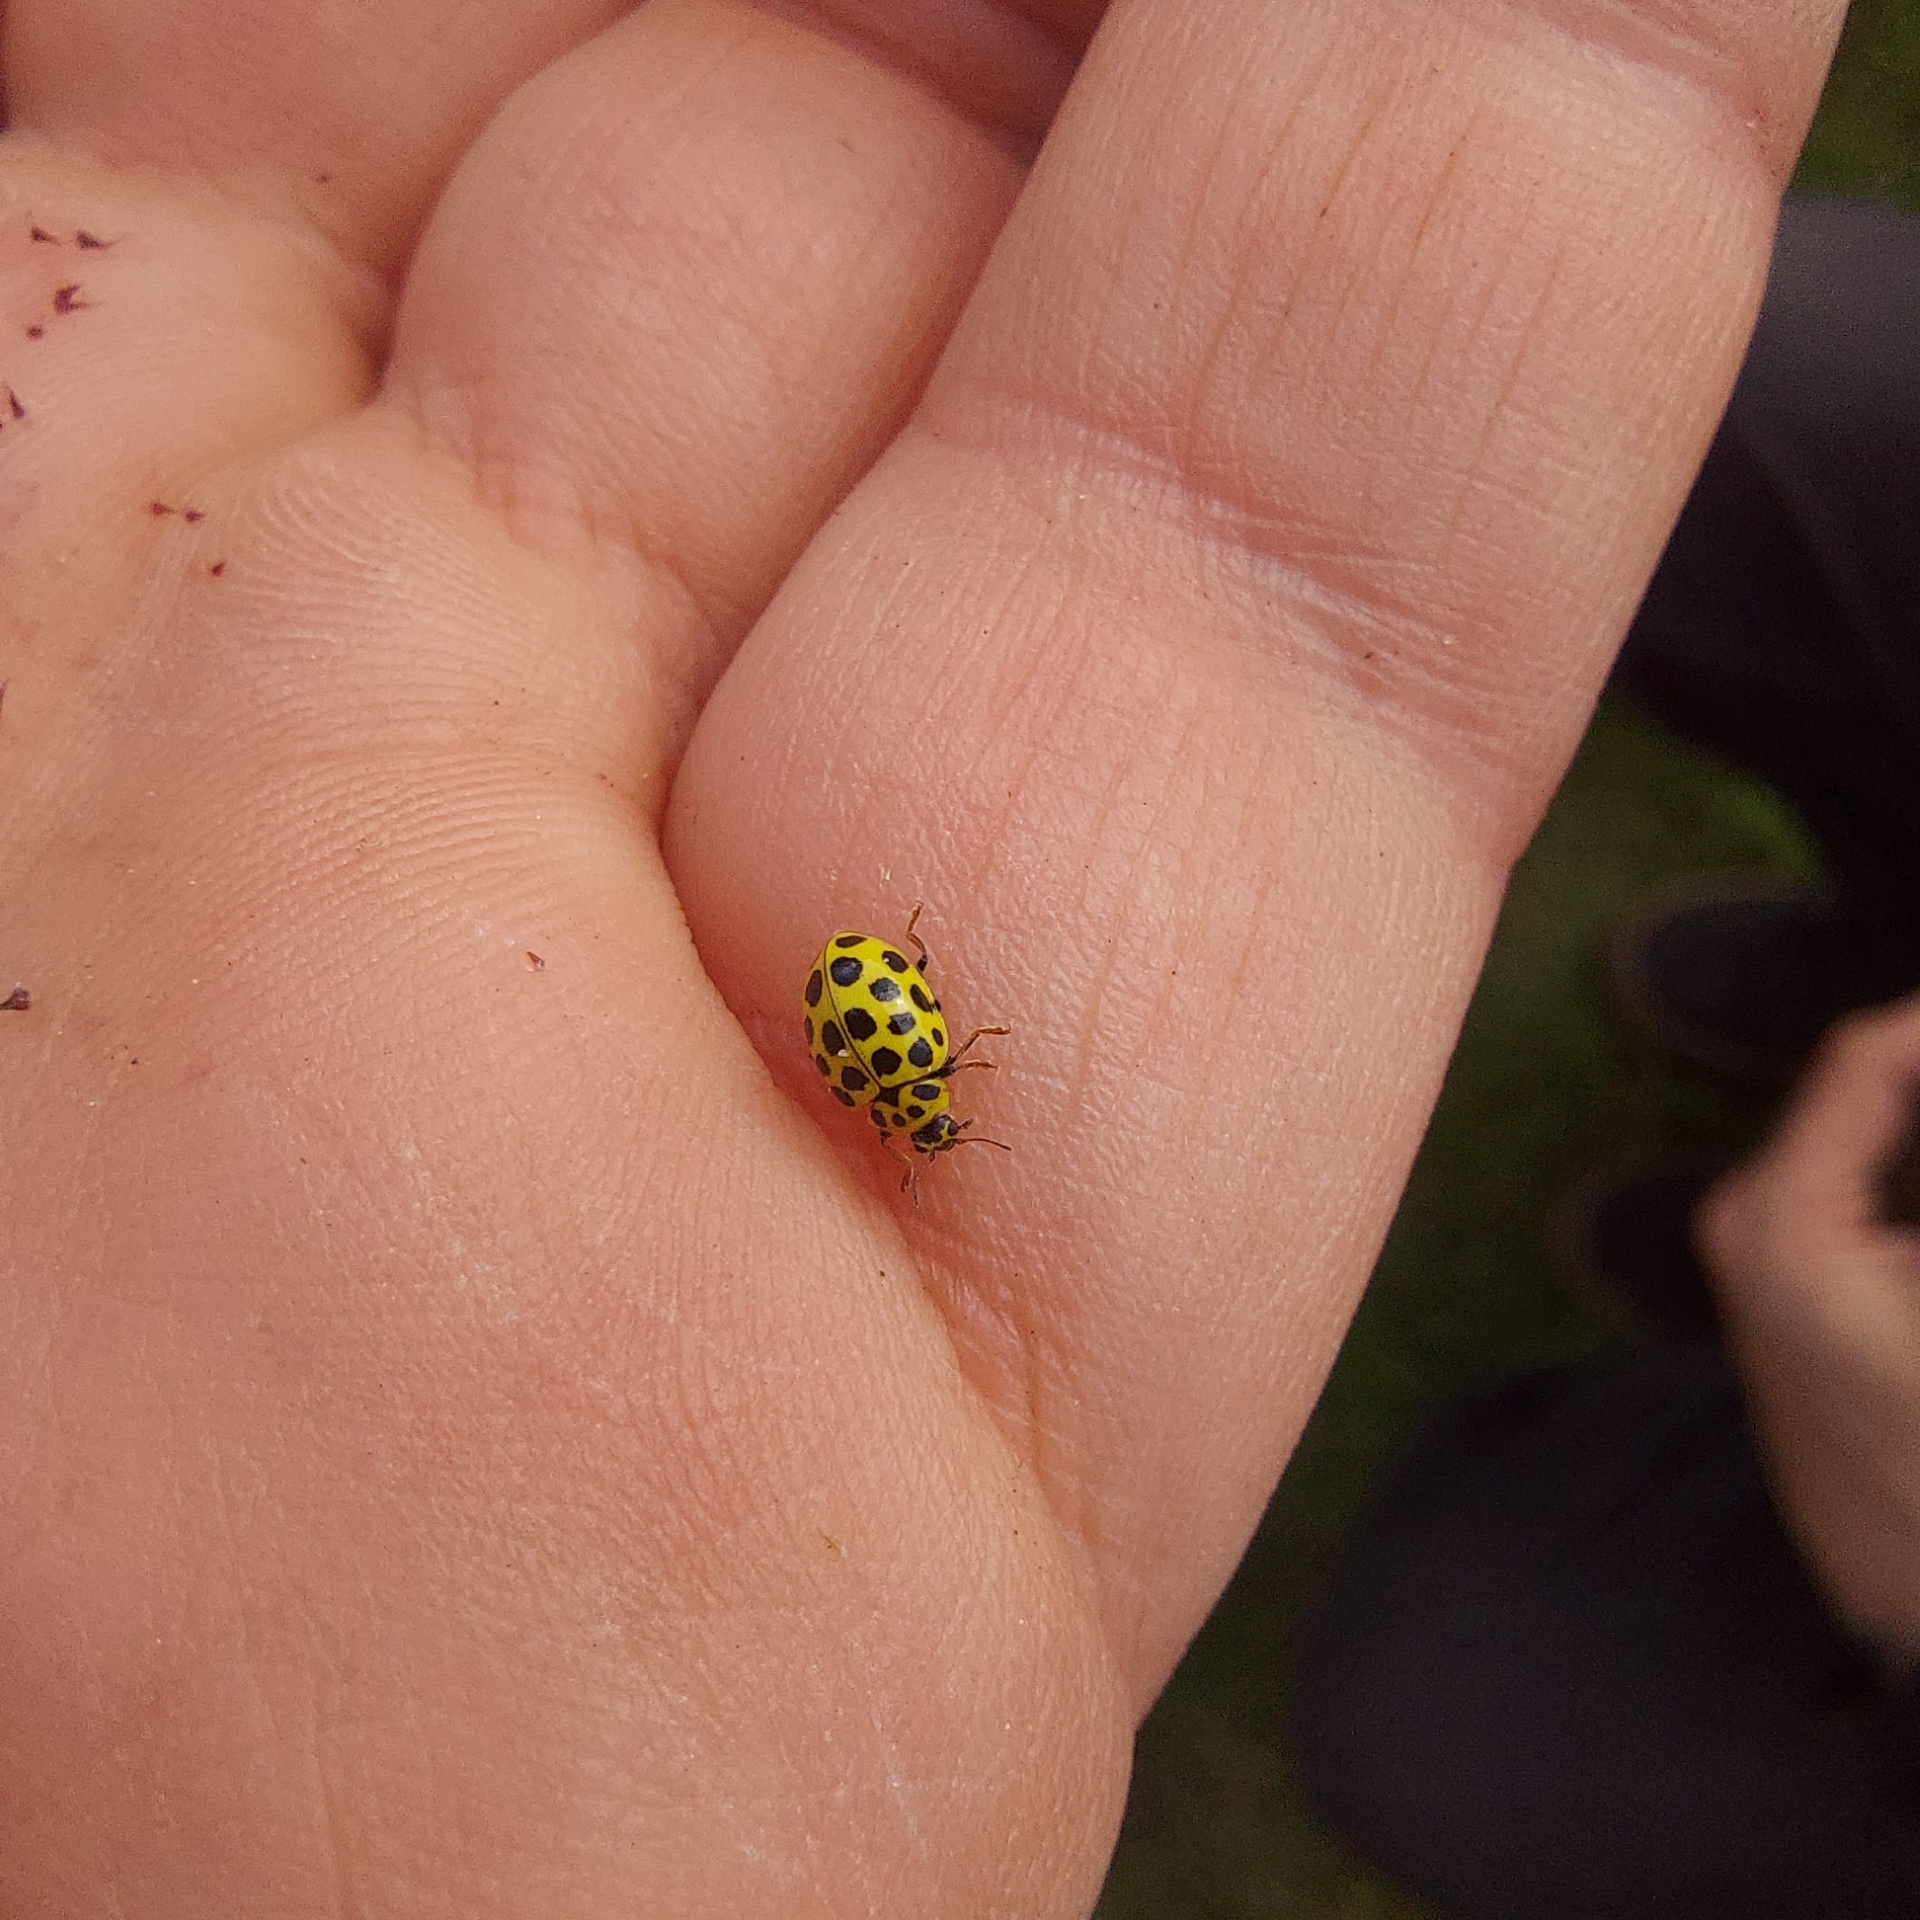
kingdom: Animalia
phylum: Arthropoda
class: Insecta
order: Coleoptera
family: Coccinellidae
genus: Psyllobora
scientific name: Psyllobora vigintiduopunctata
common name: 22-spot ladybird
